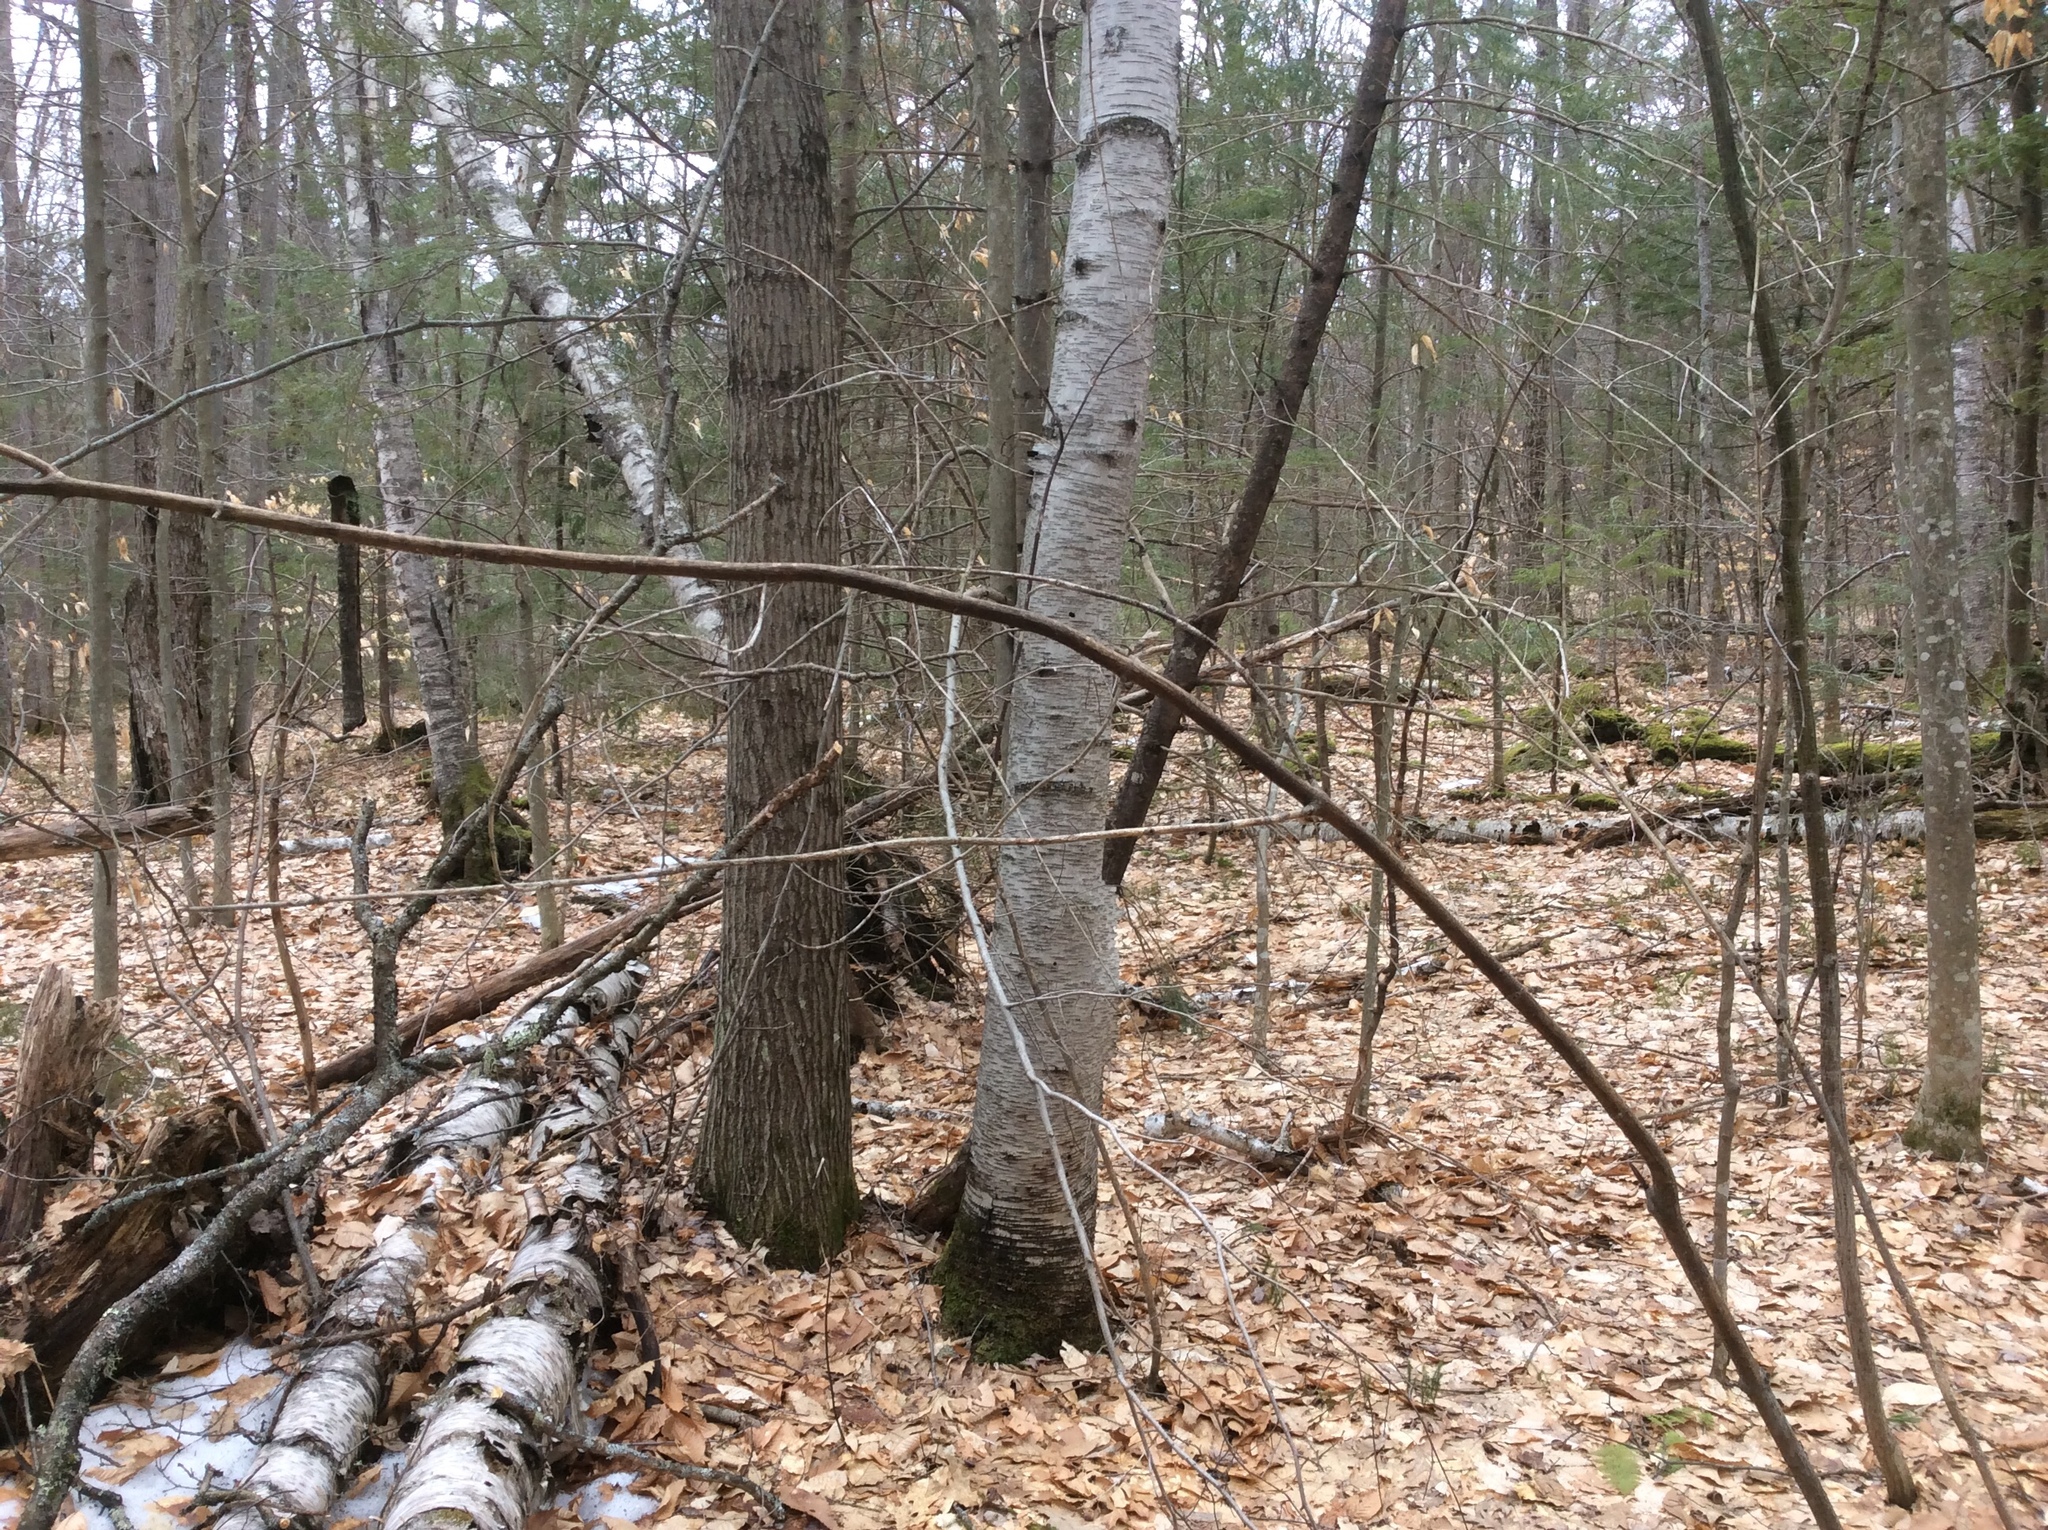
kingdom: Plantae
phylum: Tracheophyta
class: Magnoliopsida
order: Fagales
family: Betulaceae
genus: Betula
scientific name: Betula papyrifera
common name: Paper birch
